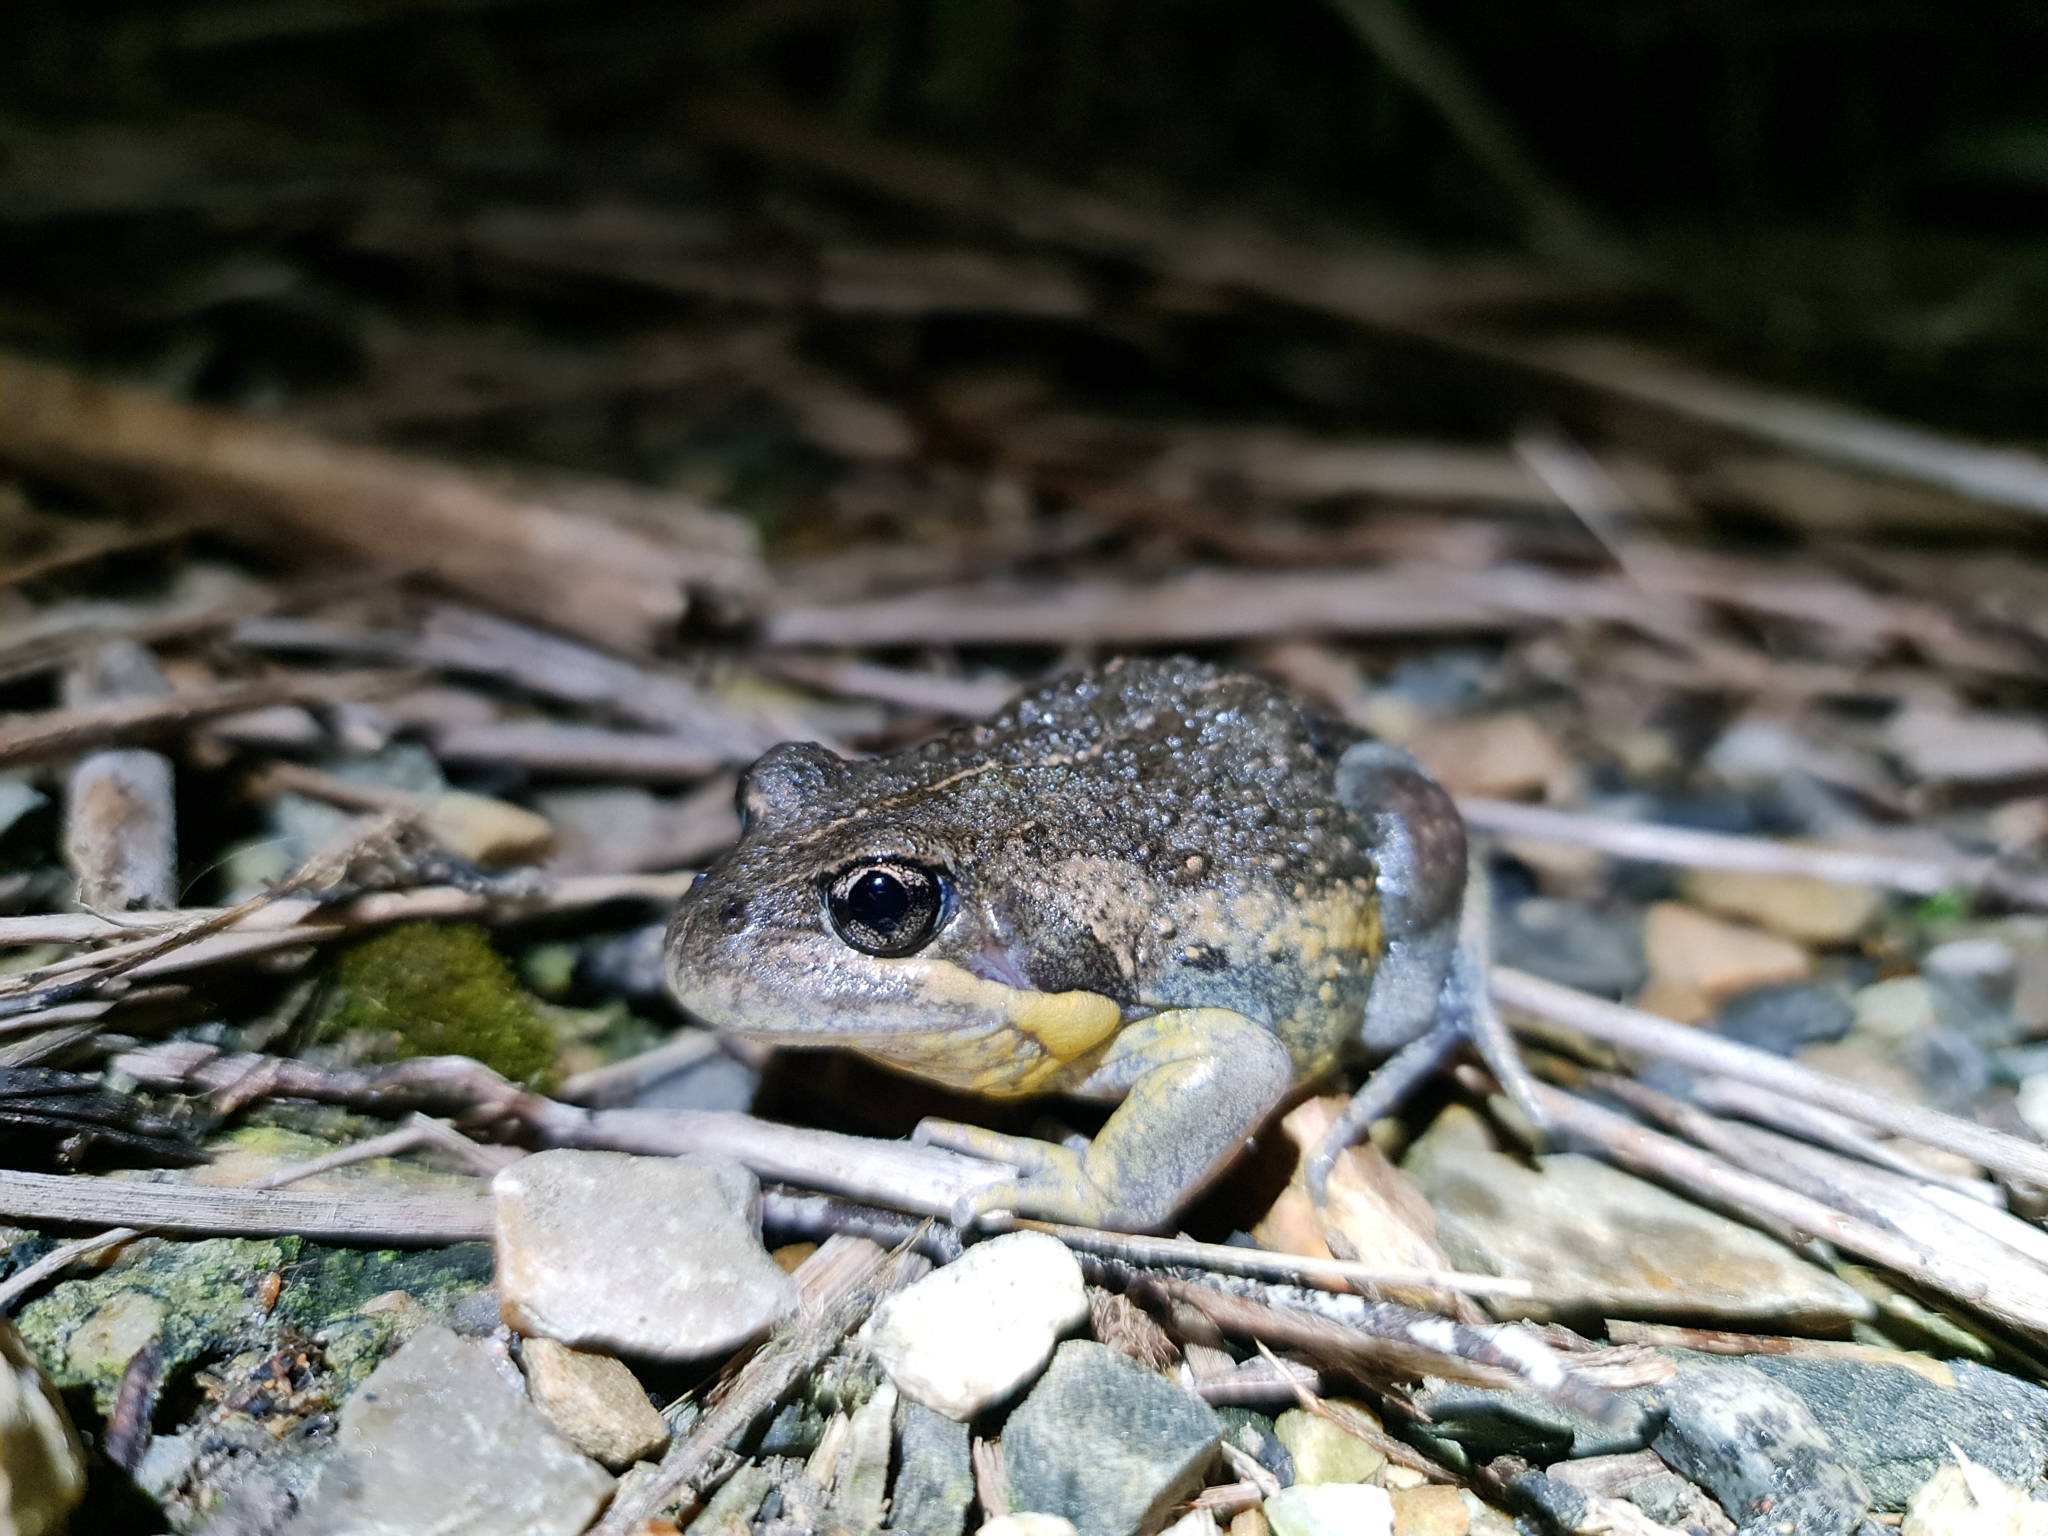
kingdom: Animalia
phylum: Chordata
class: Amphibia
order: Anura
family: Limnodynastidae
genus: Limnodynastes
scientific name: Limnodynastes dumerilii
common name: Banjo frog
